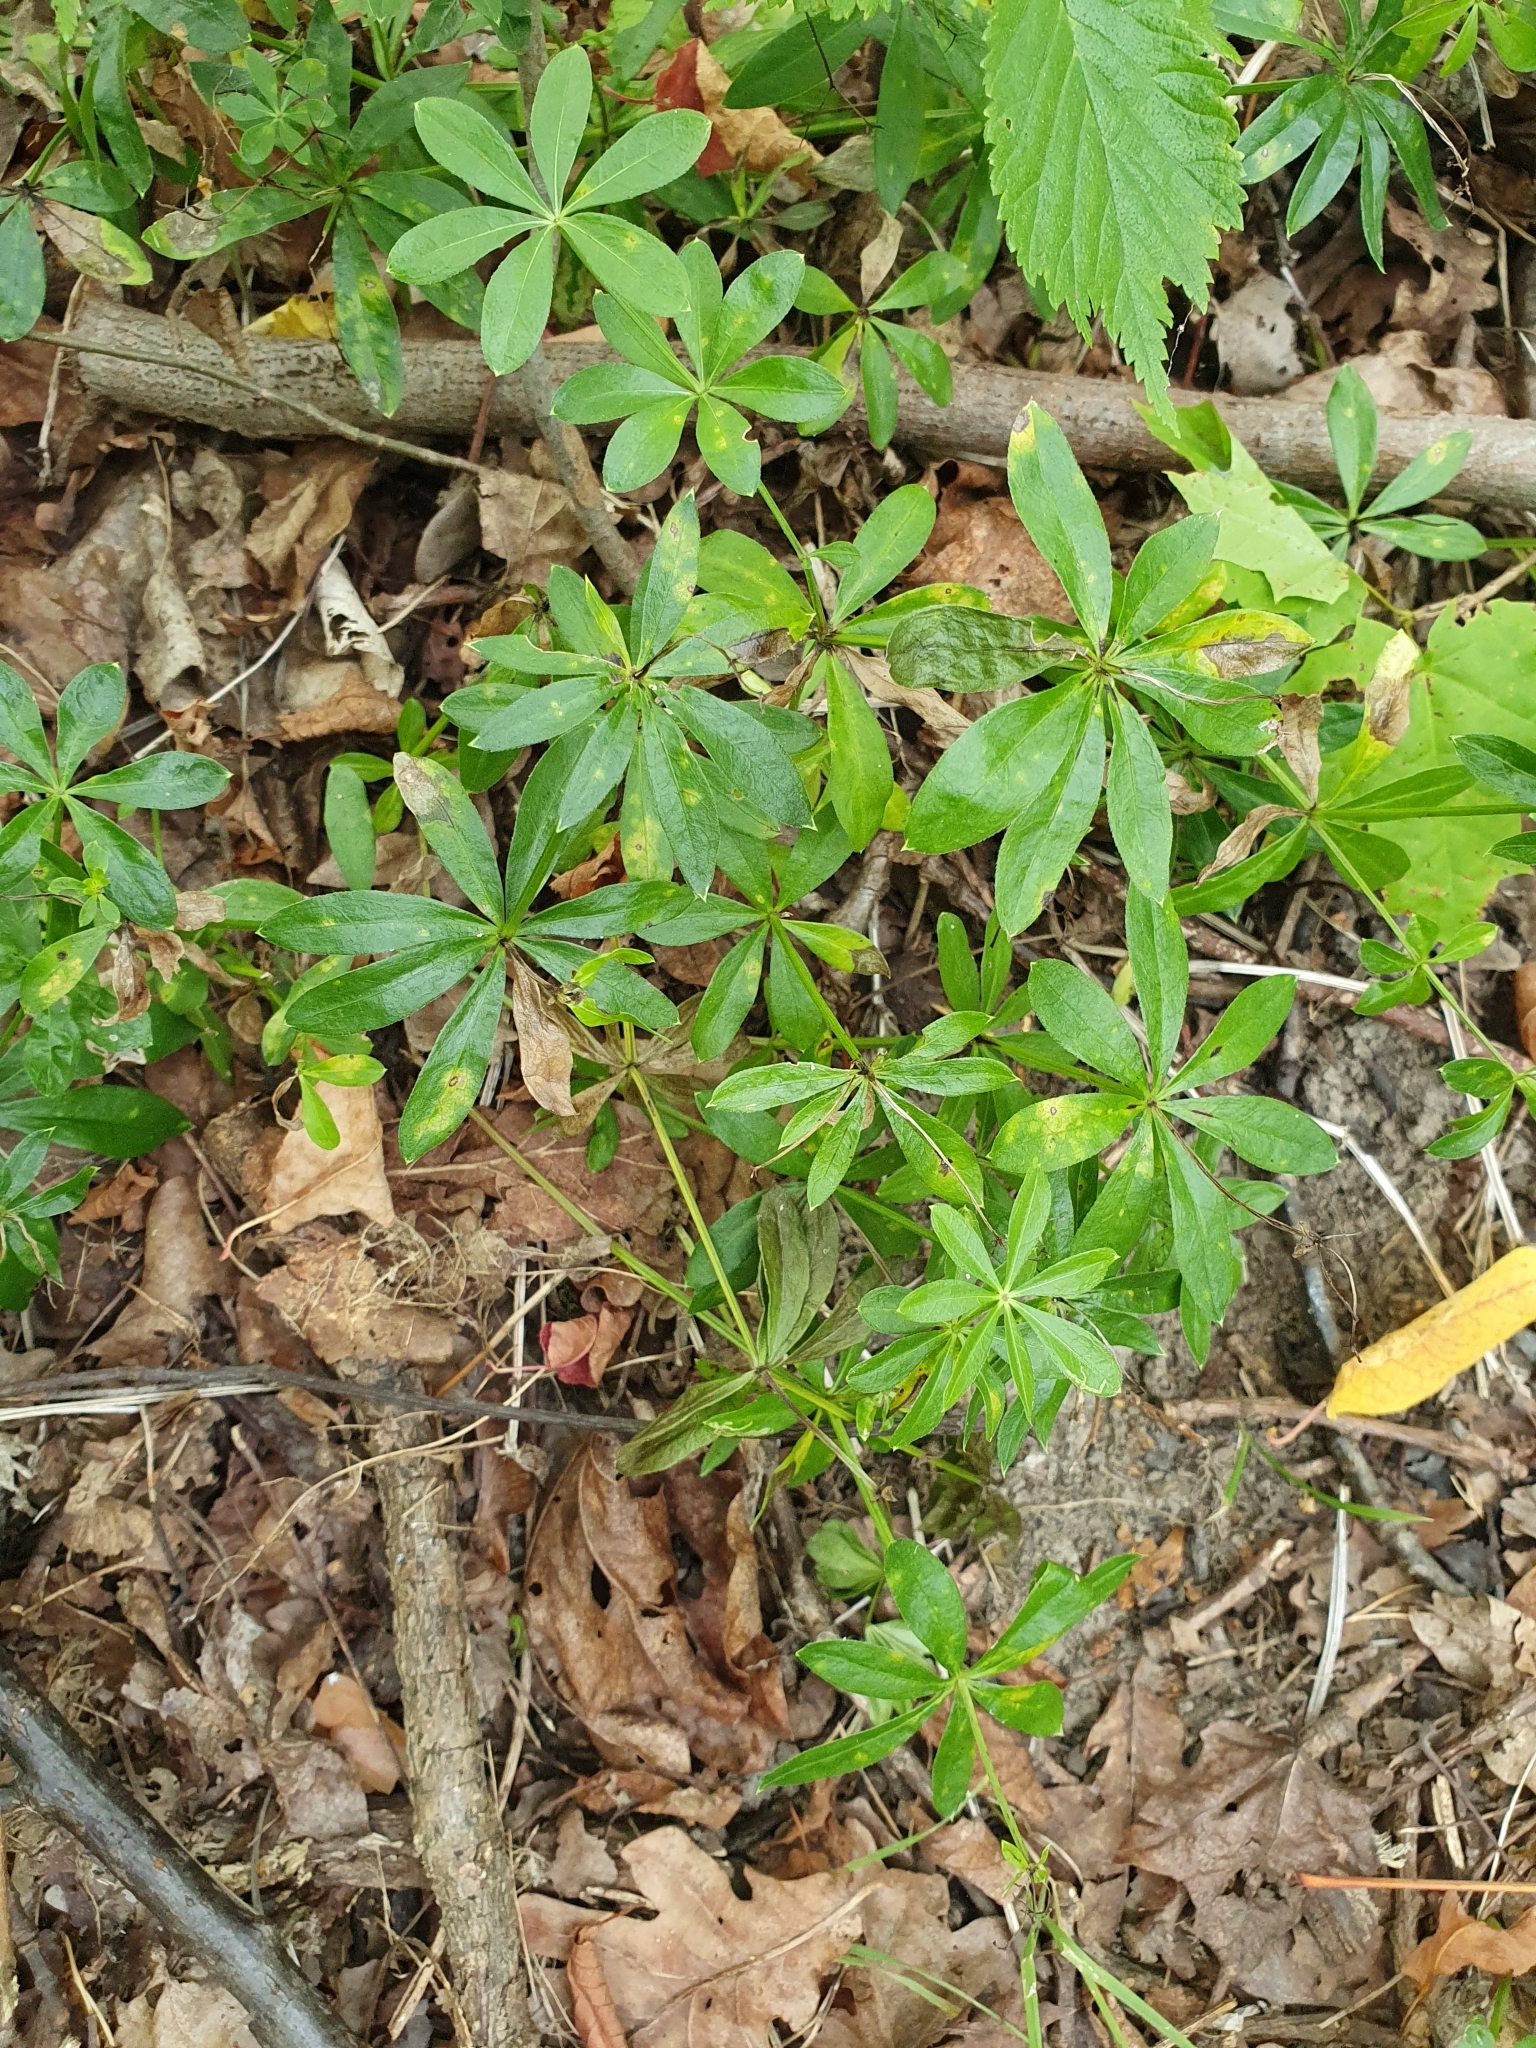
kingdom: Plantae
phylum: Tracheophyta
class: Magnoliopsida
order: Gentianales
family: Rubiaceae
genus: Galium
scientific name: Galium odoratum
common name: Sweet woodruff
